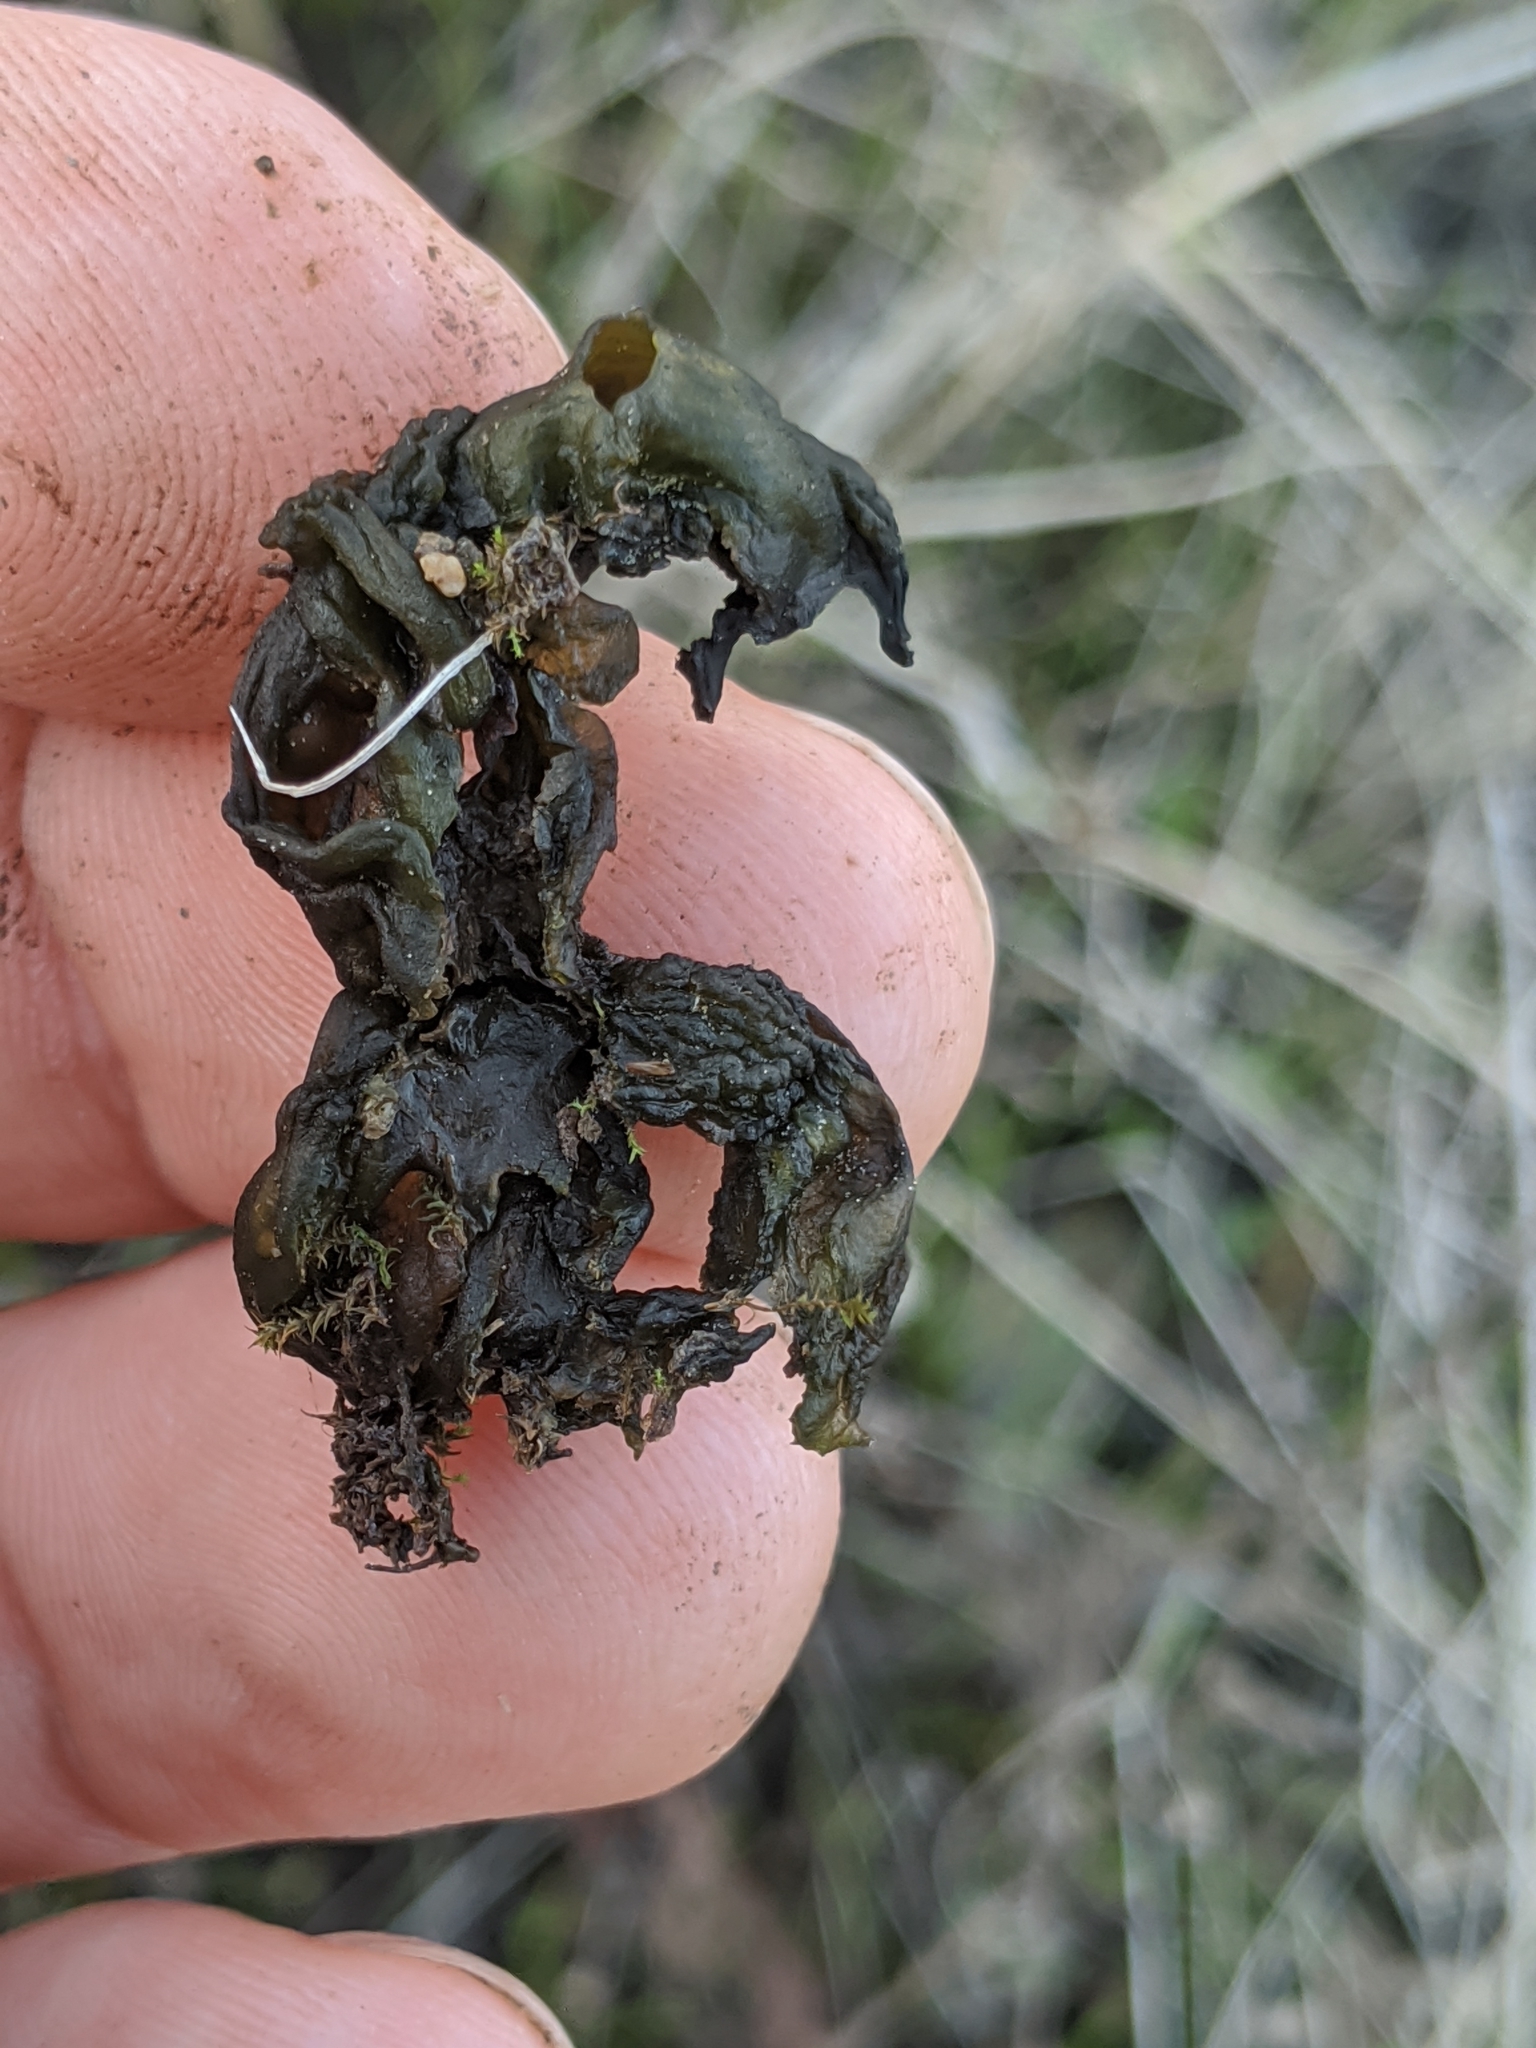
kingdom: Bacteria
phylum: Cyanobacteria
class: Cyanobacteriia
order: Cyanobacteriales
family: Nostocaceae
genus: Nostoc
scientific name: Nostoc commune
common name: Star jelly
